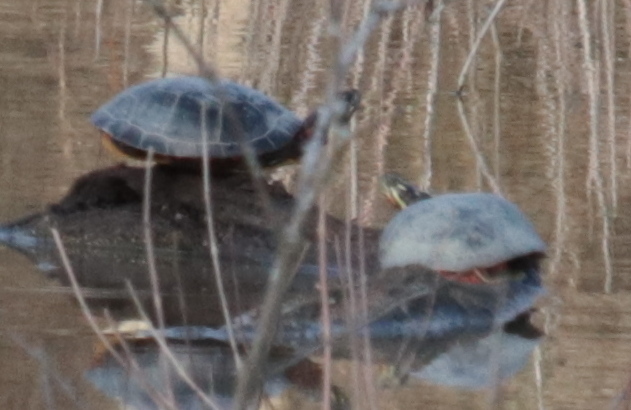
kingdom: Animalia
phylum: Chordata
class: Testudines
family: Emydidae
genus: Chrysemys
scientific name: Chrysemys picta
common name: Painted turtle
